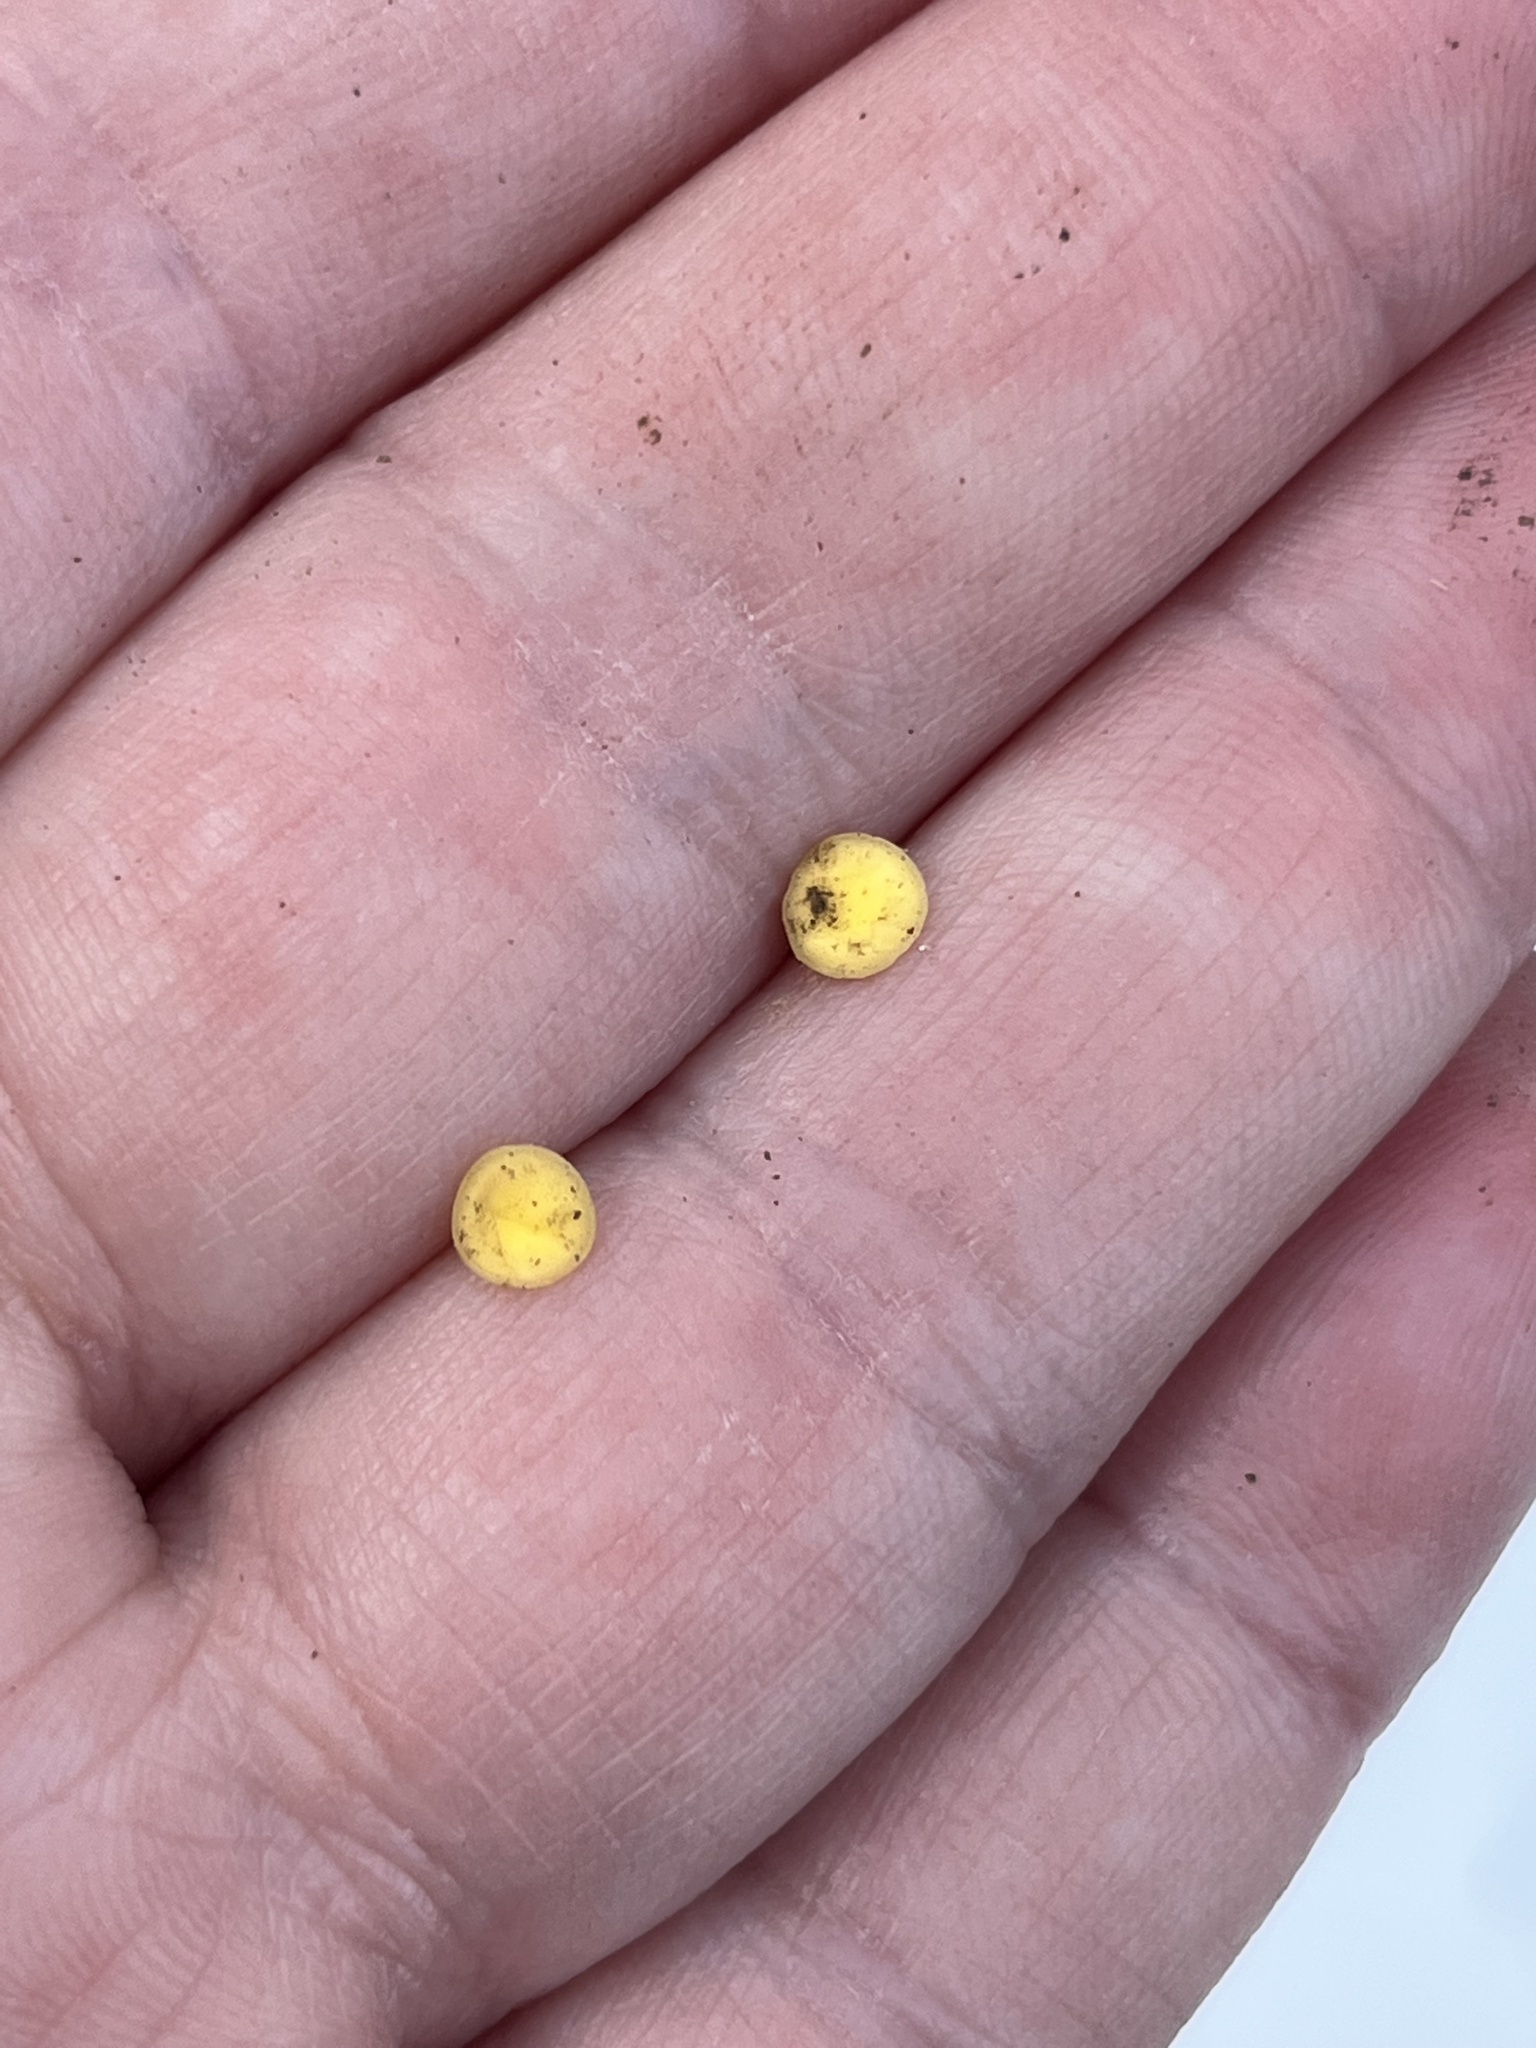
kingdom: Fungi
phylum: Ascomycota
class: Leotiomycetes
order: Helotiales
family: Pezizellaceae
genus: Calycina
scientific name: Calycina citrina
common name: Yellow fairy cups
